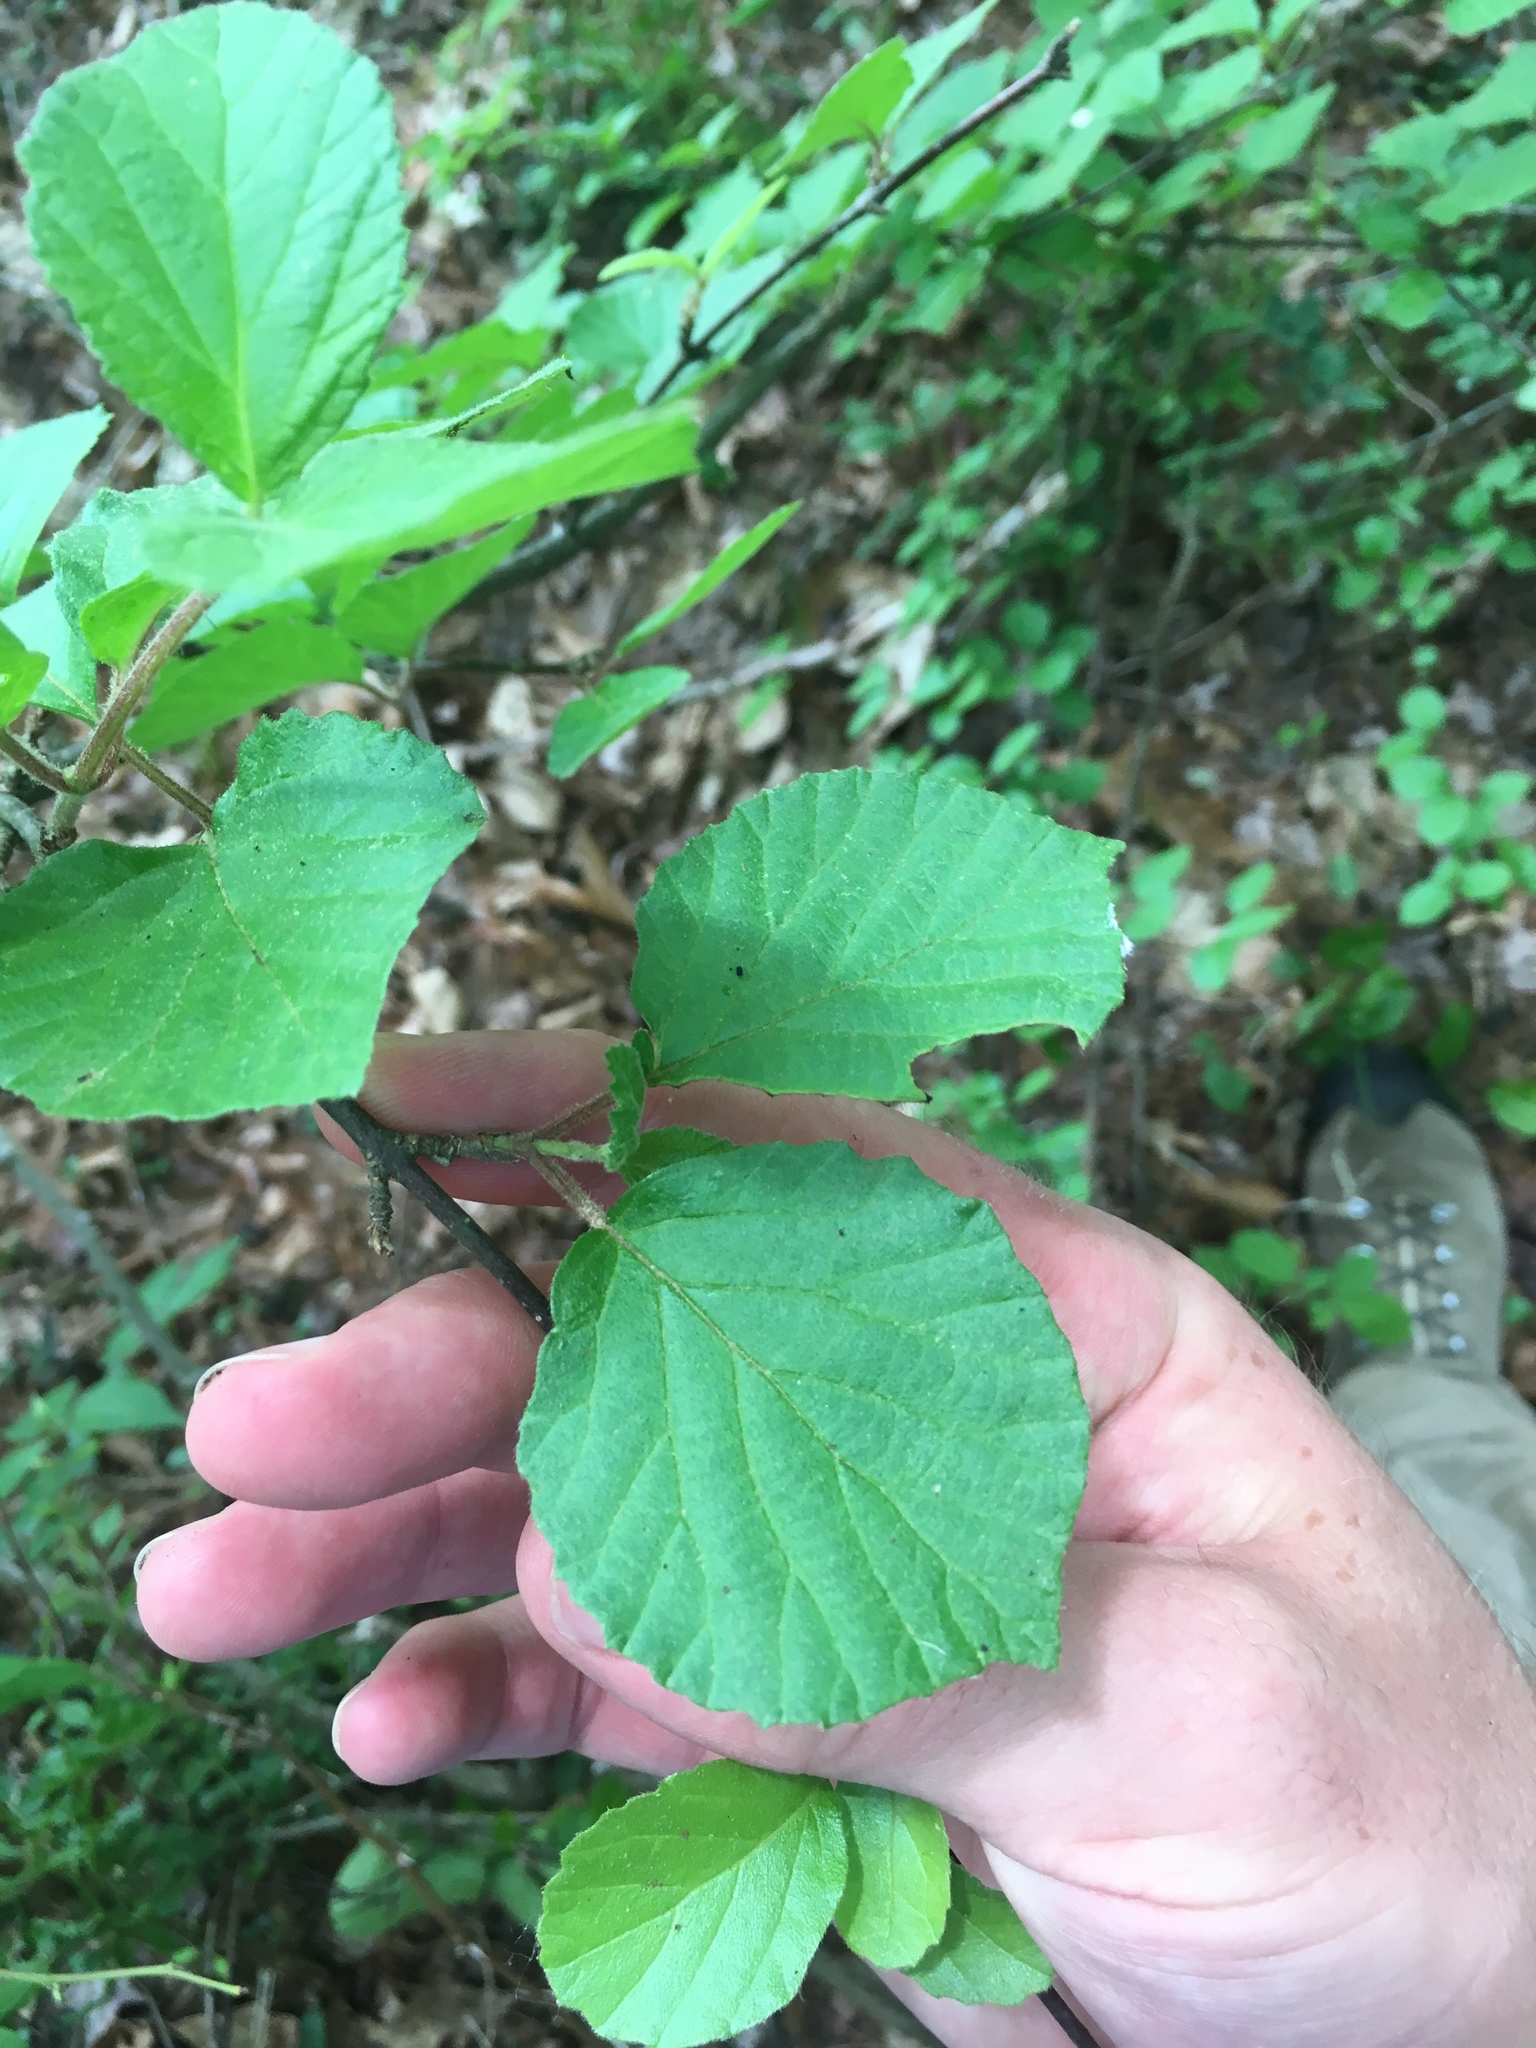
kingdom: Plantae
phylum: Tracheophyta
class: Magnoliopsida
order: Dipsacales
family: Viburnaceae
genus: Viburnum
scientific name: Viburnum dilatatum
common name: Linden arrowwood
